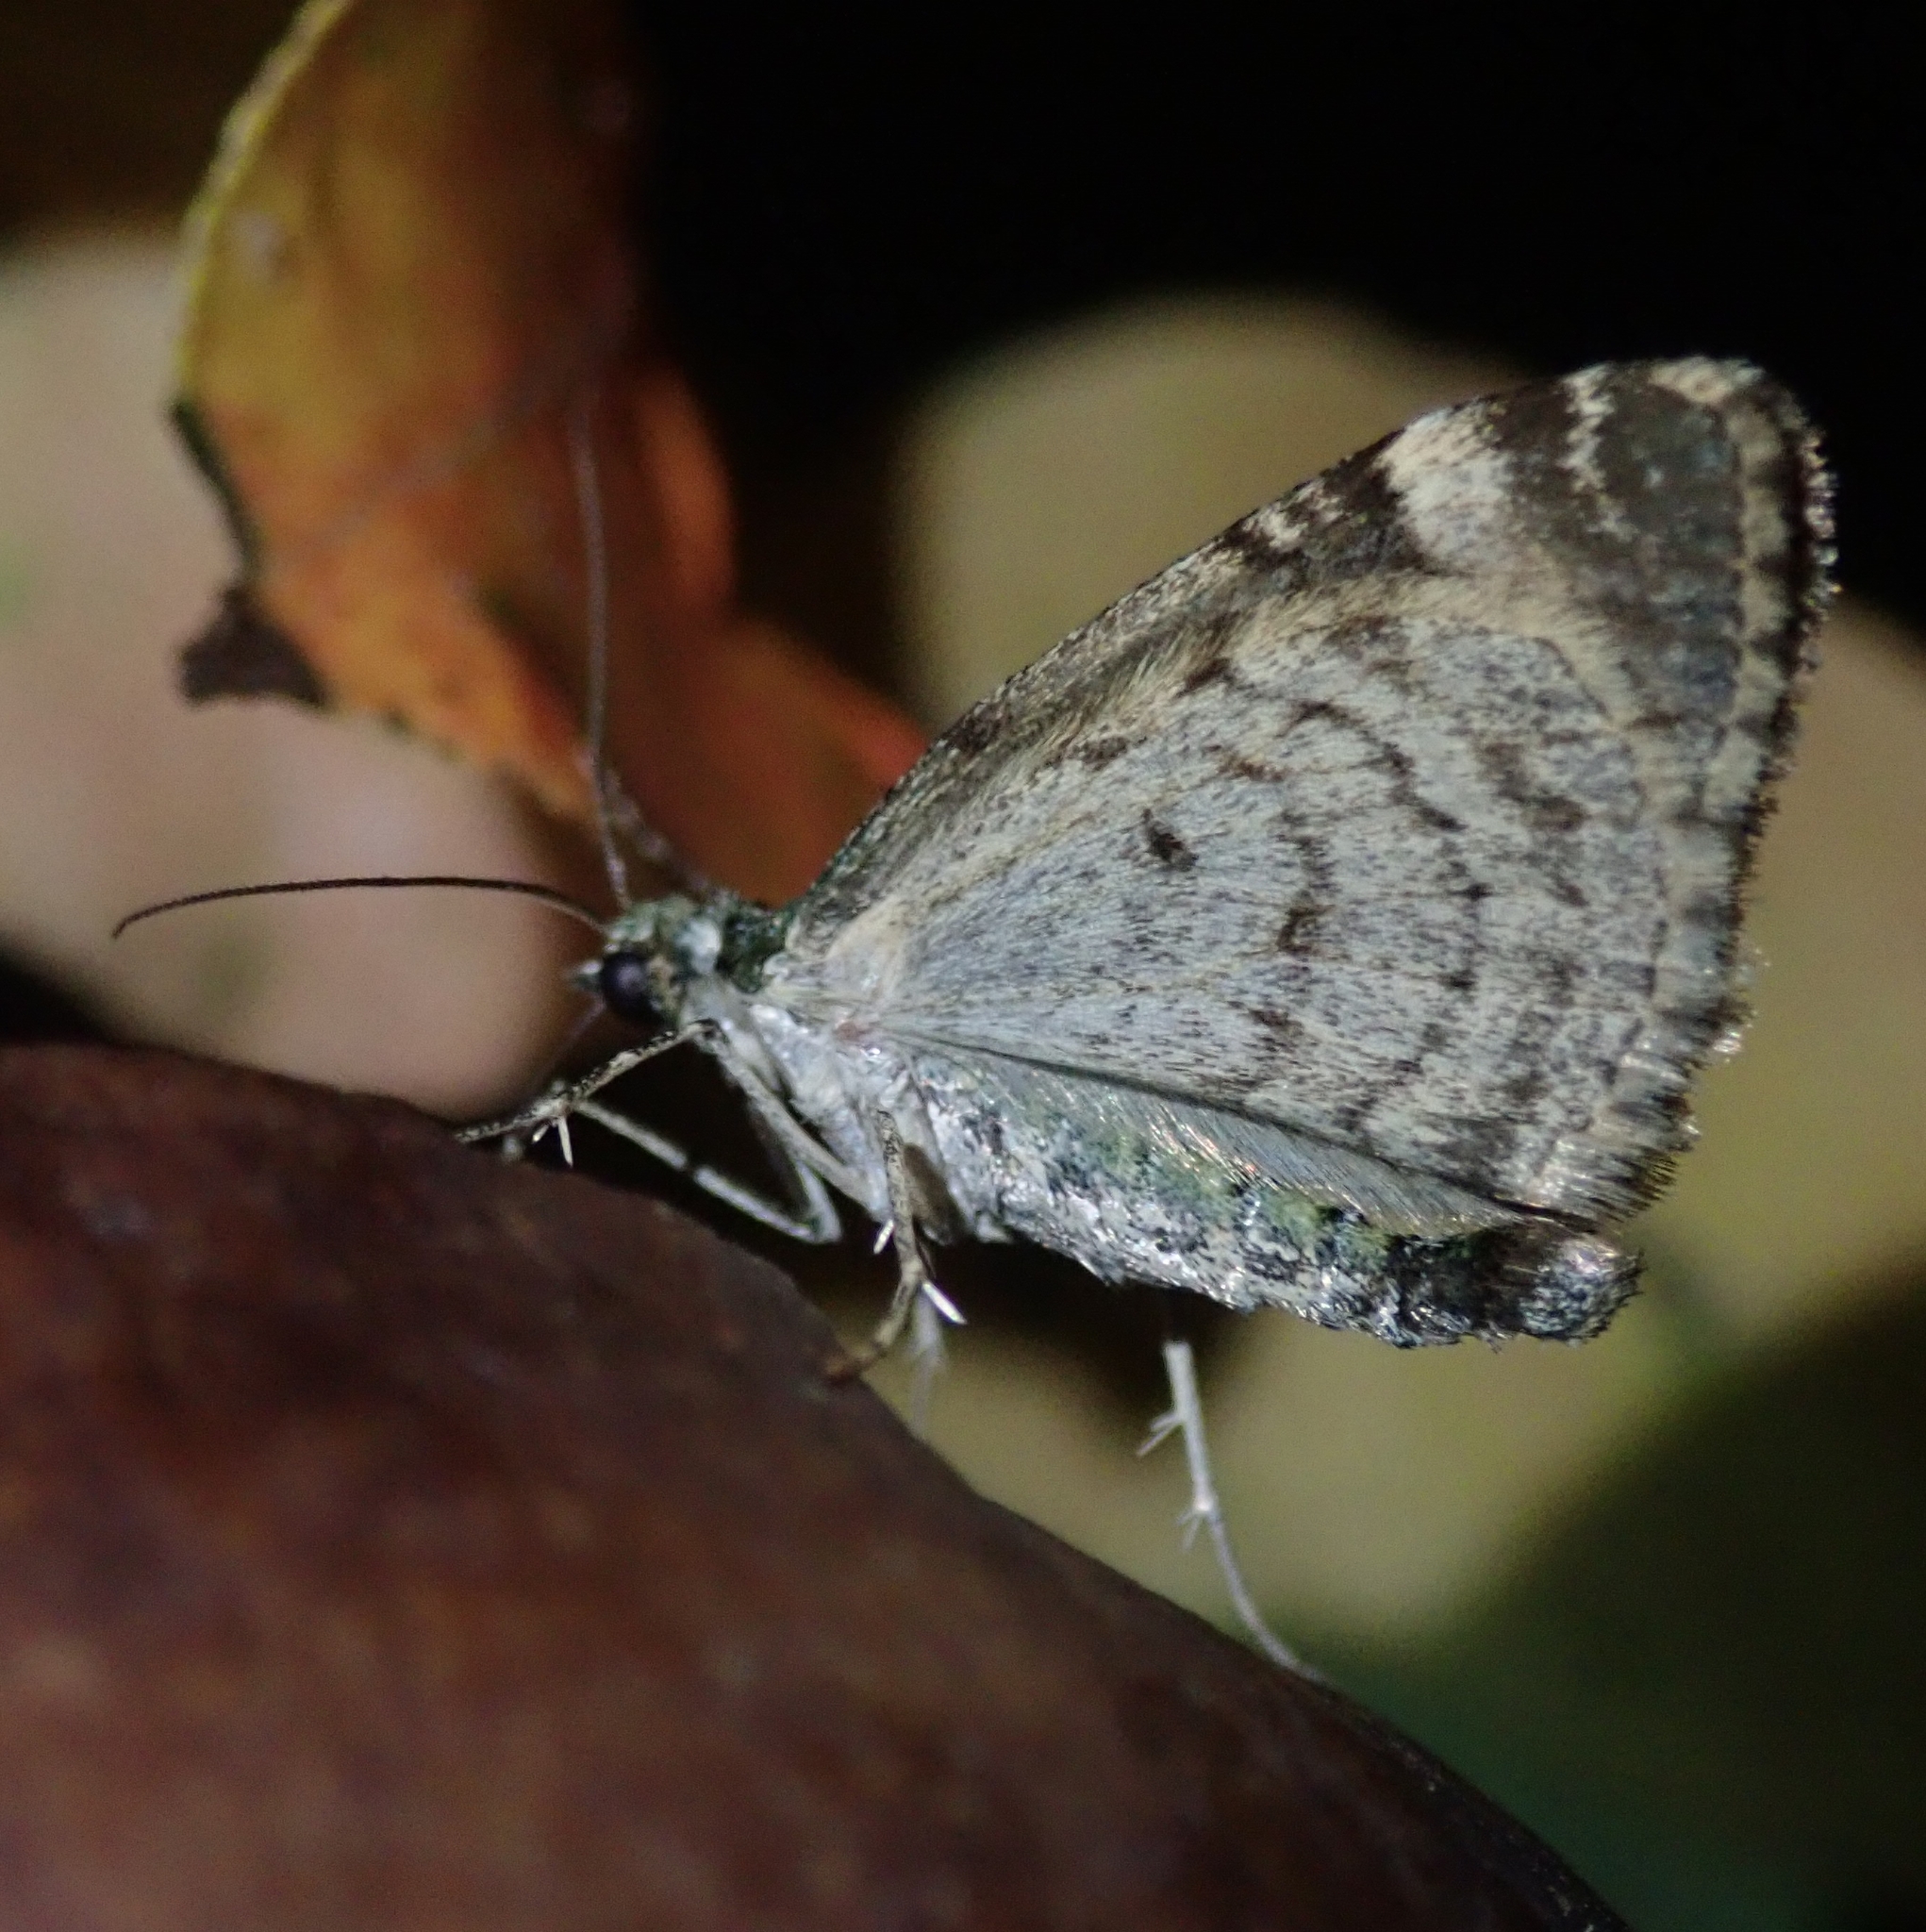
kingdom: Animalia
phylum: Arthropoda
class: Insecta
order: Lepidoptera
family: Geometridae
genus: Chloroclysta
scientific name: Chloroclysta siterata
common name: Red-green carpet
